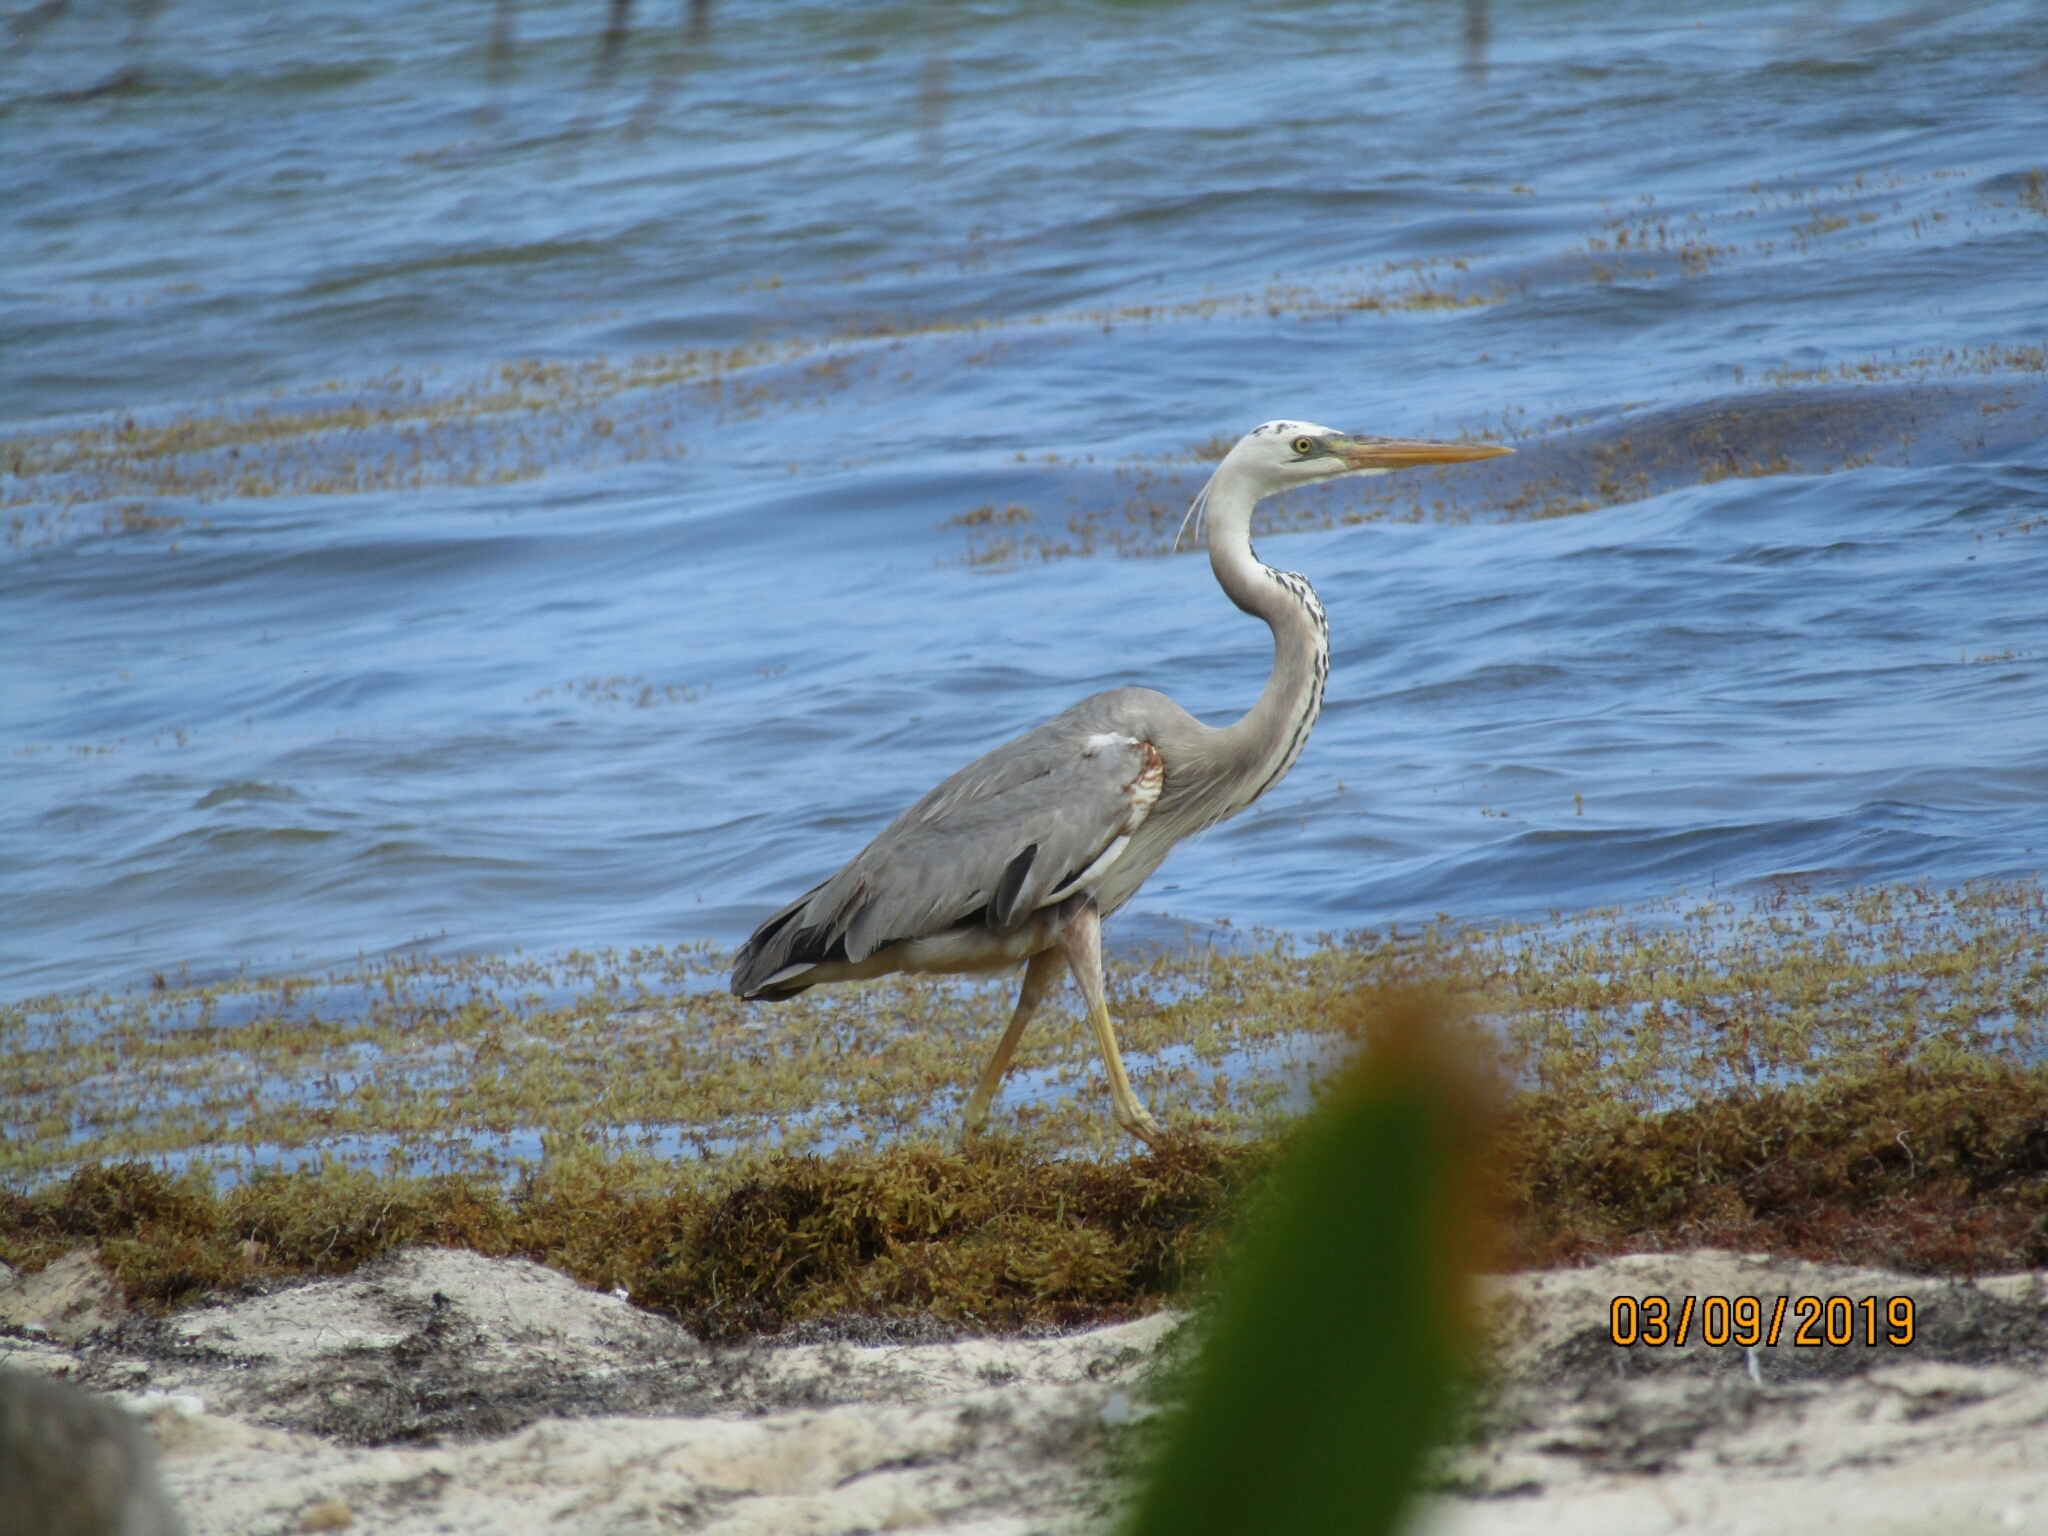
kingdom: Animalia
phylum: Chordata
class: Aves
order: Pelecaniformes
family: Ardeidae
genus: Ardea
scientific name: Ardea
